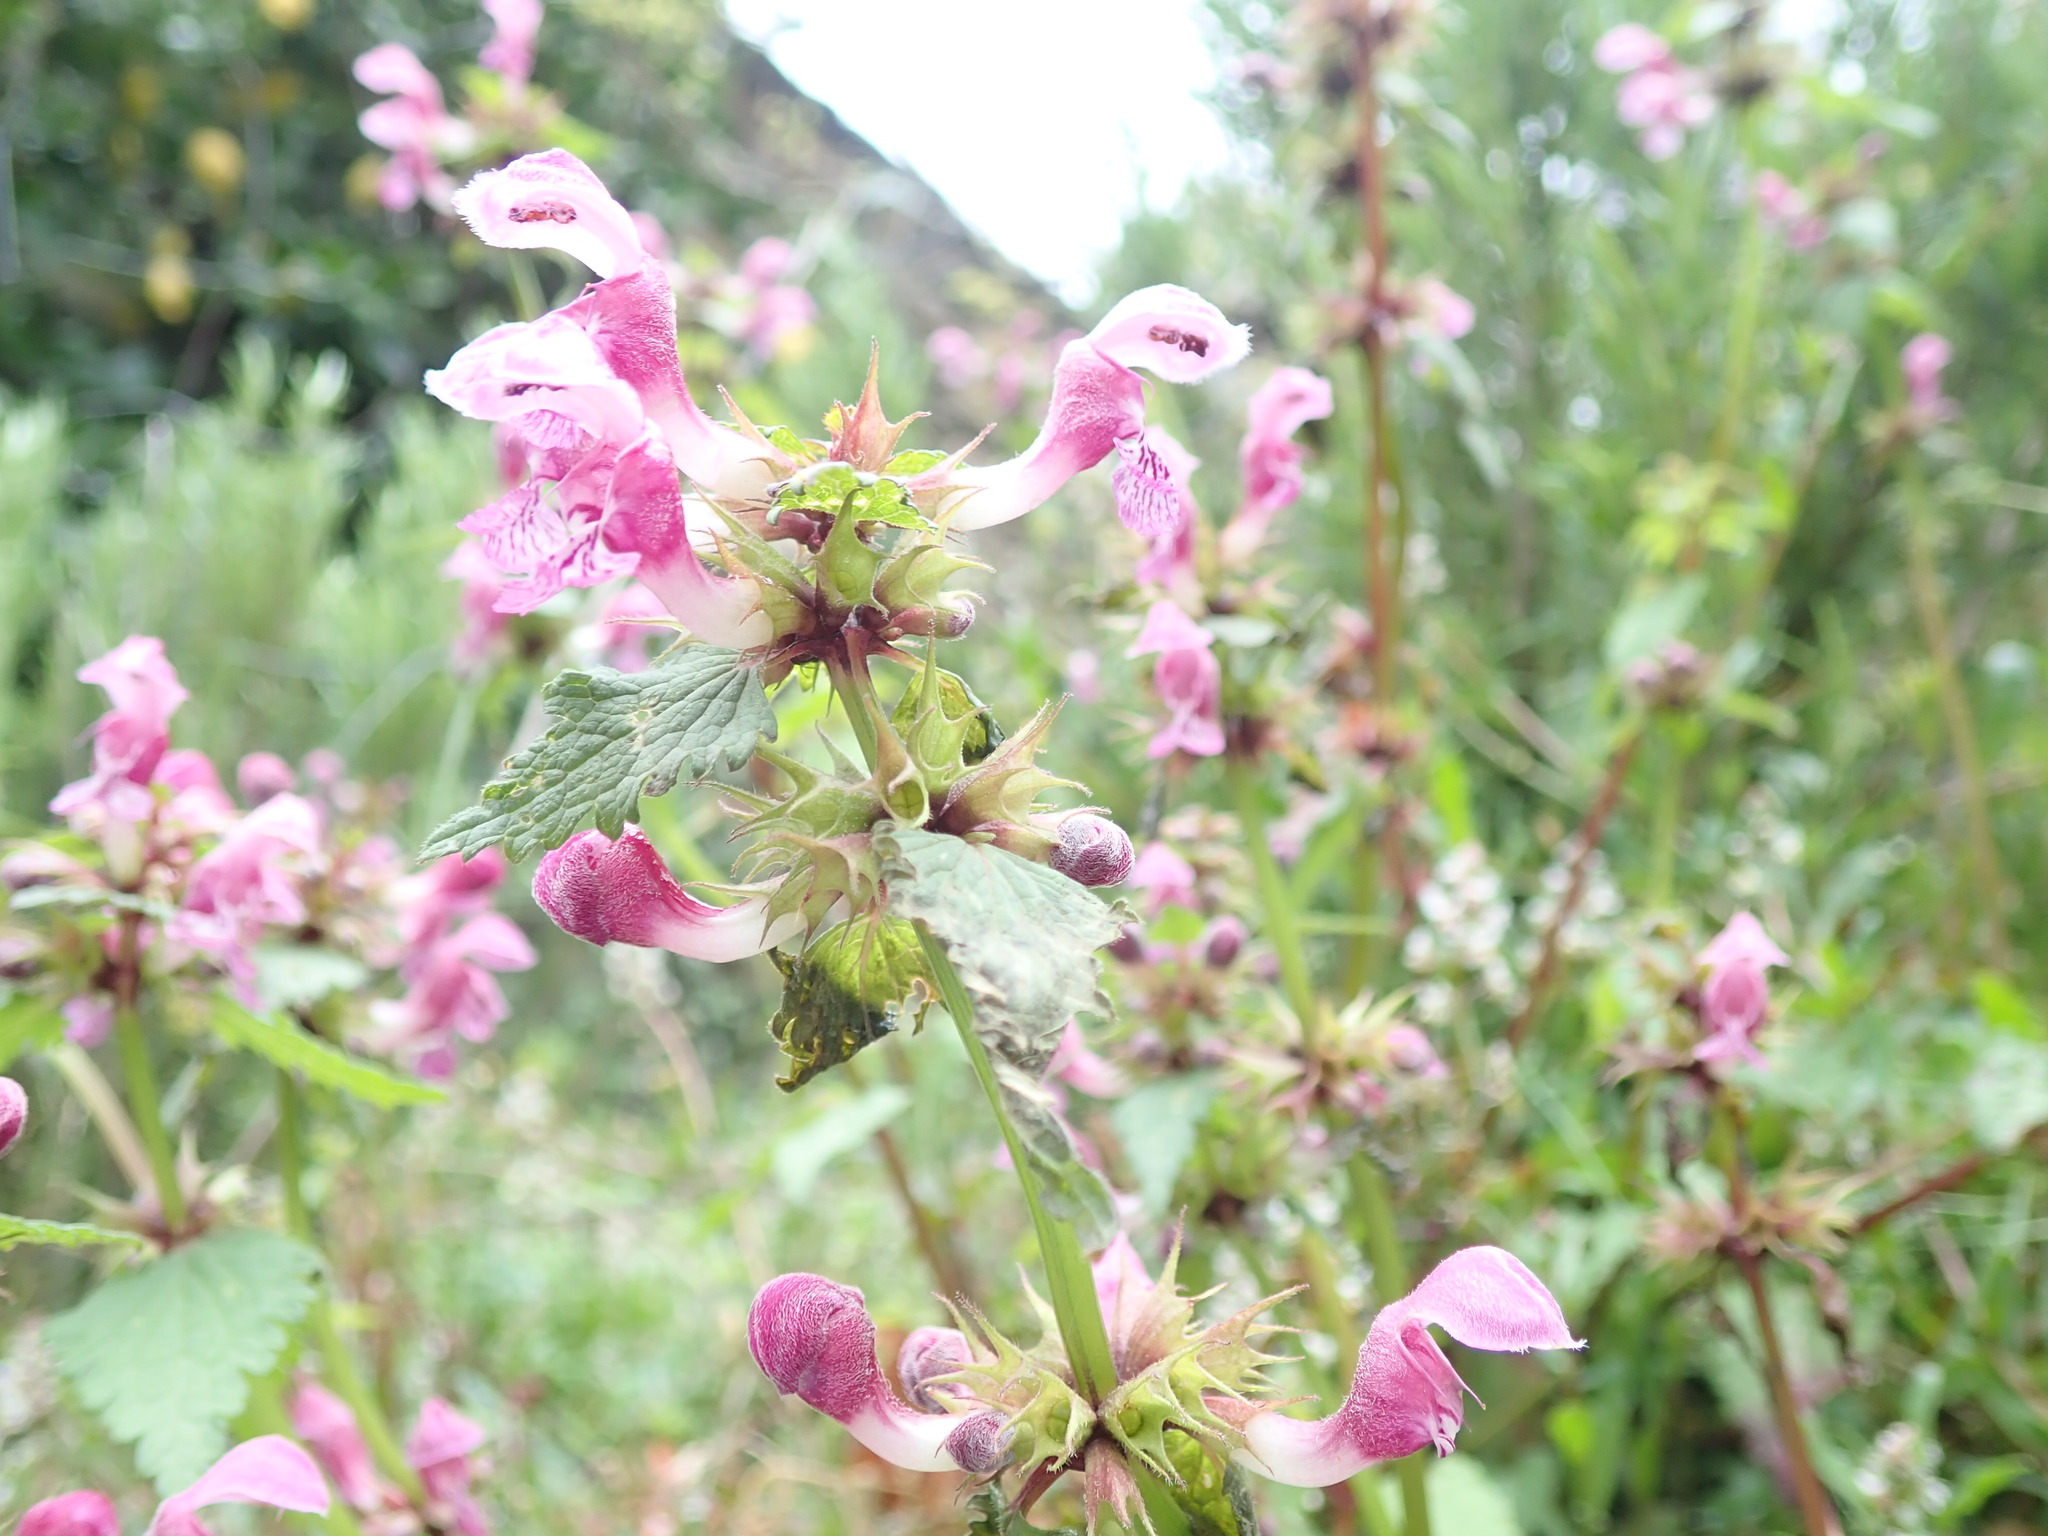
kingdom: Plantae
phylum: Tracheophyta
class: Magnoliopsida
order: Lamiales
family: Lamiaceae
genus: Lamium
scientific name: Lamium maculatum
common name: Spotted dead-nettle
